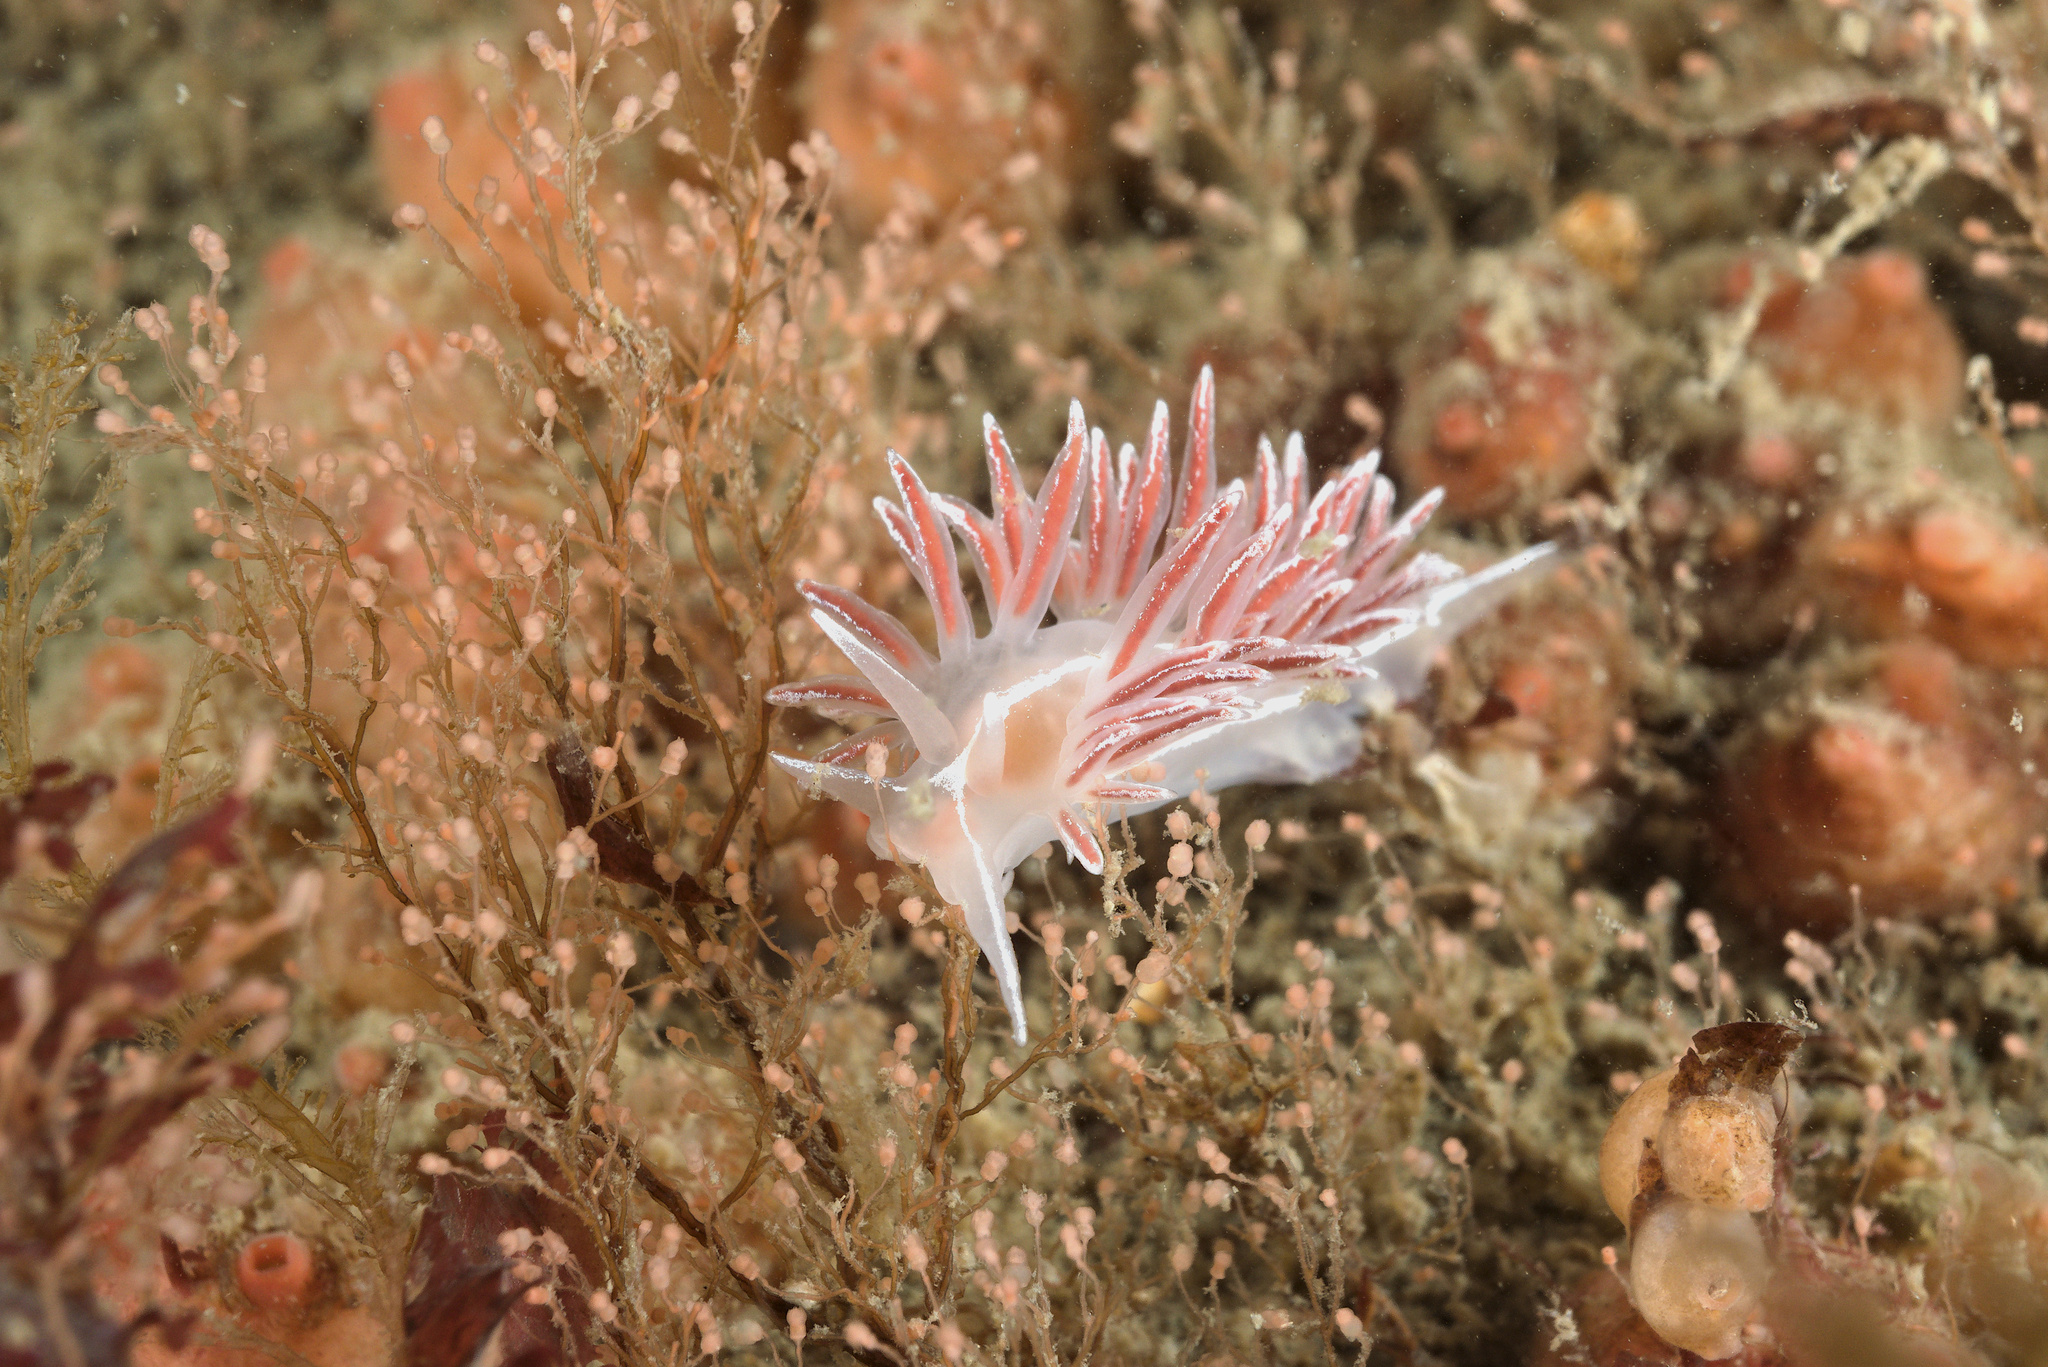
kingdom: Animalia
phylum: Mollusca
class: Gastropoda
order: Nudibranchia
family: Coryphellidae
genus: Coryphella
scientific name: Coryphella monicae
